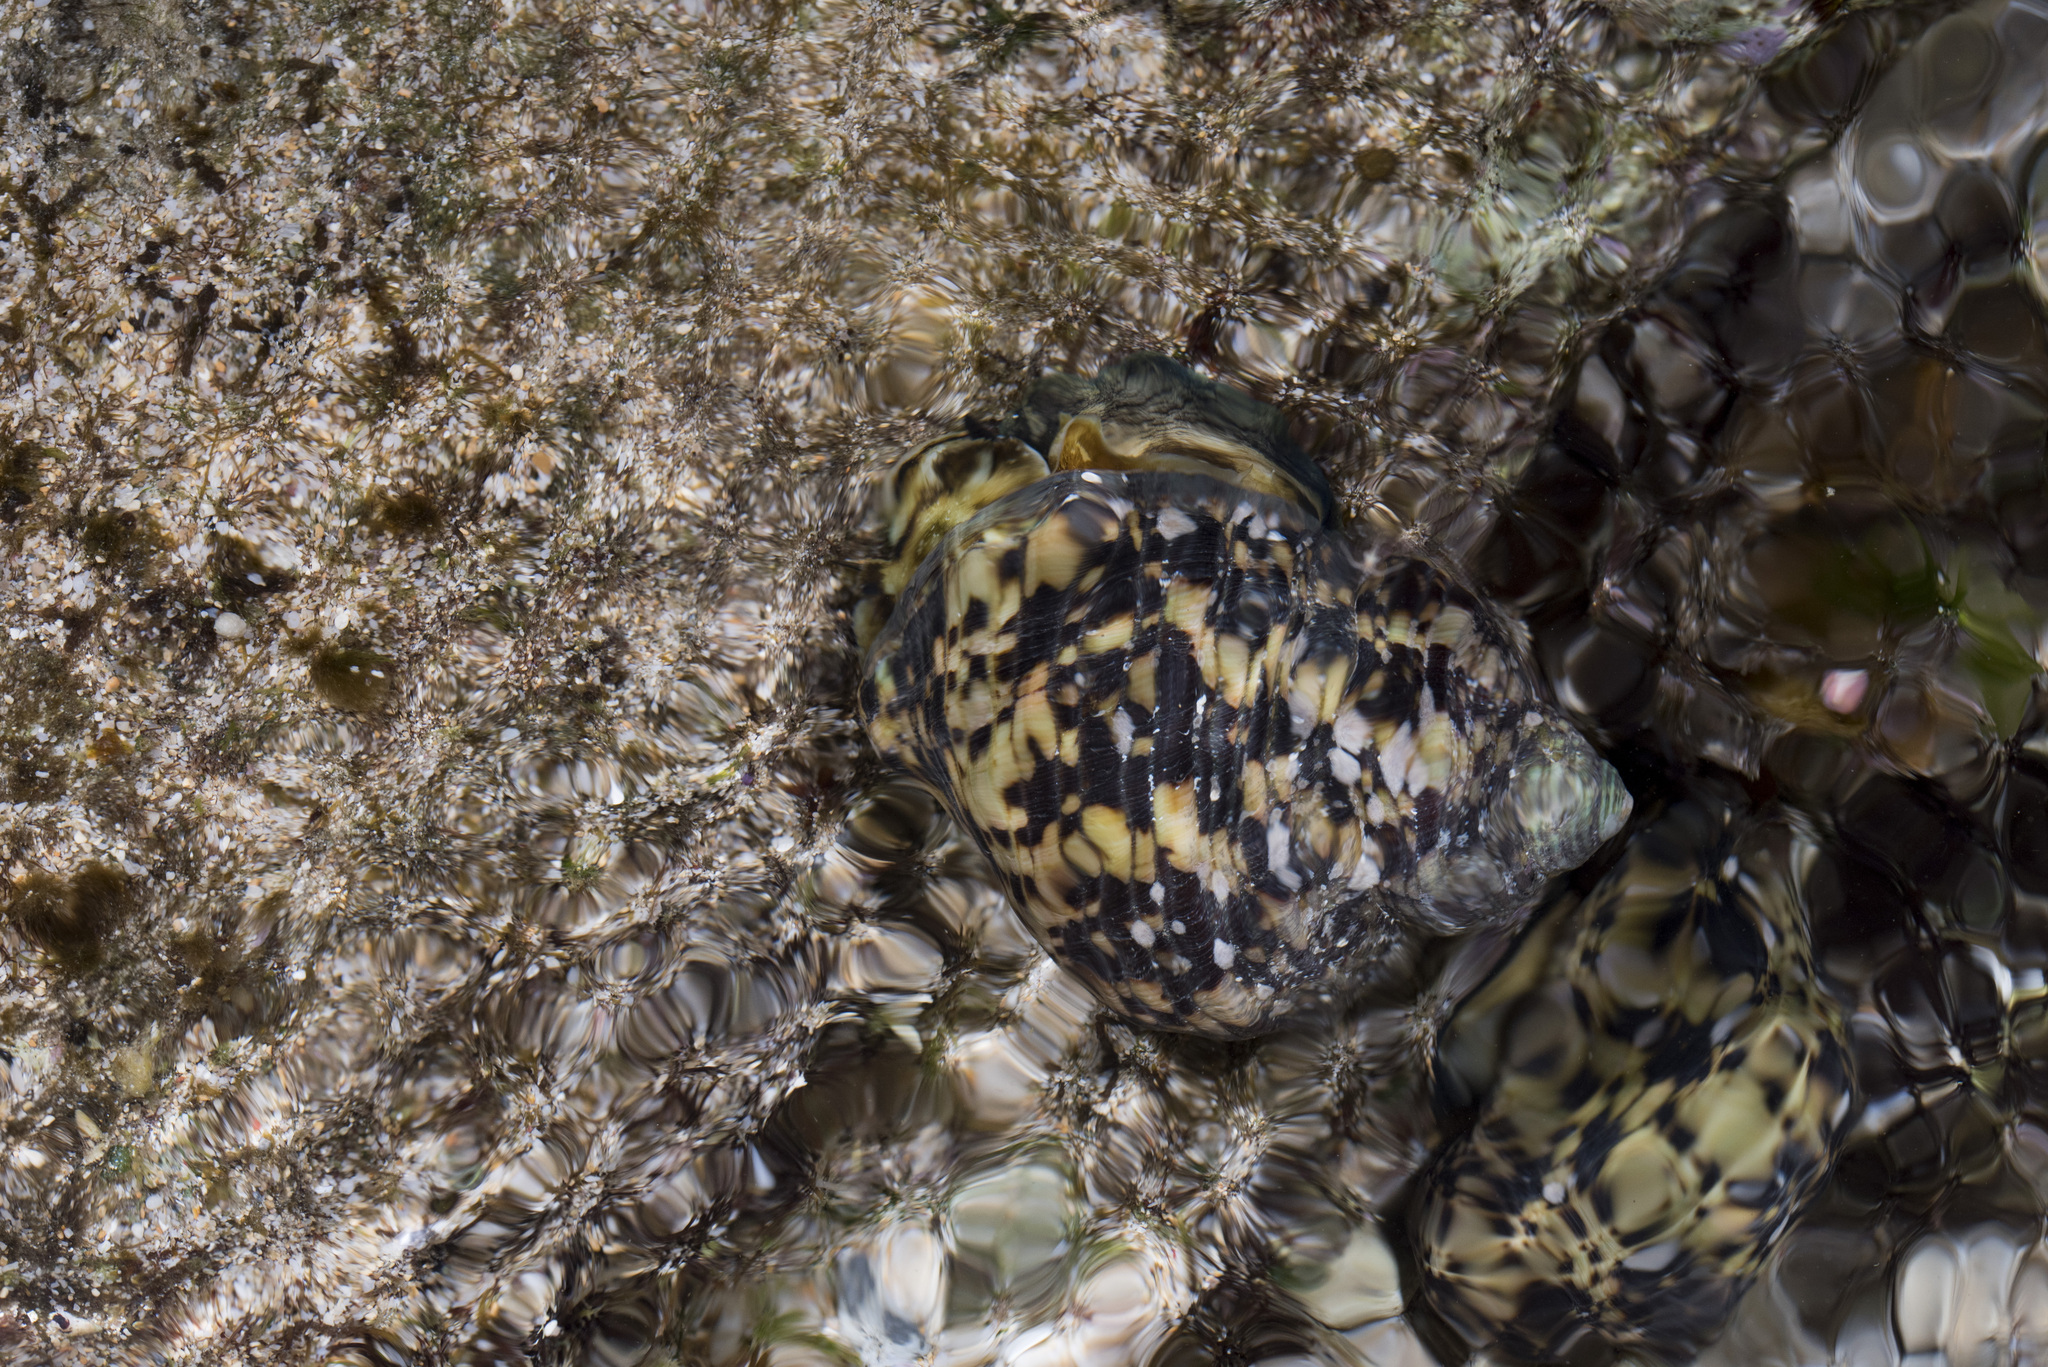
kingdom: Animalia
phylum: Mollusca
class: Gastropoda
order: Trochida
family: Turbinidae
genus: Turbo
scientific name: Turbo sparverius
